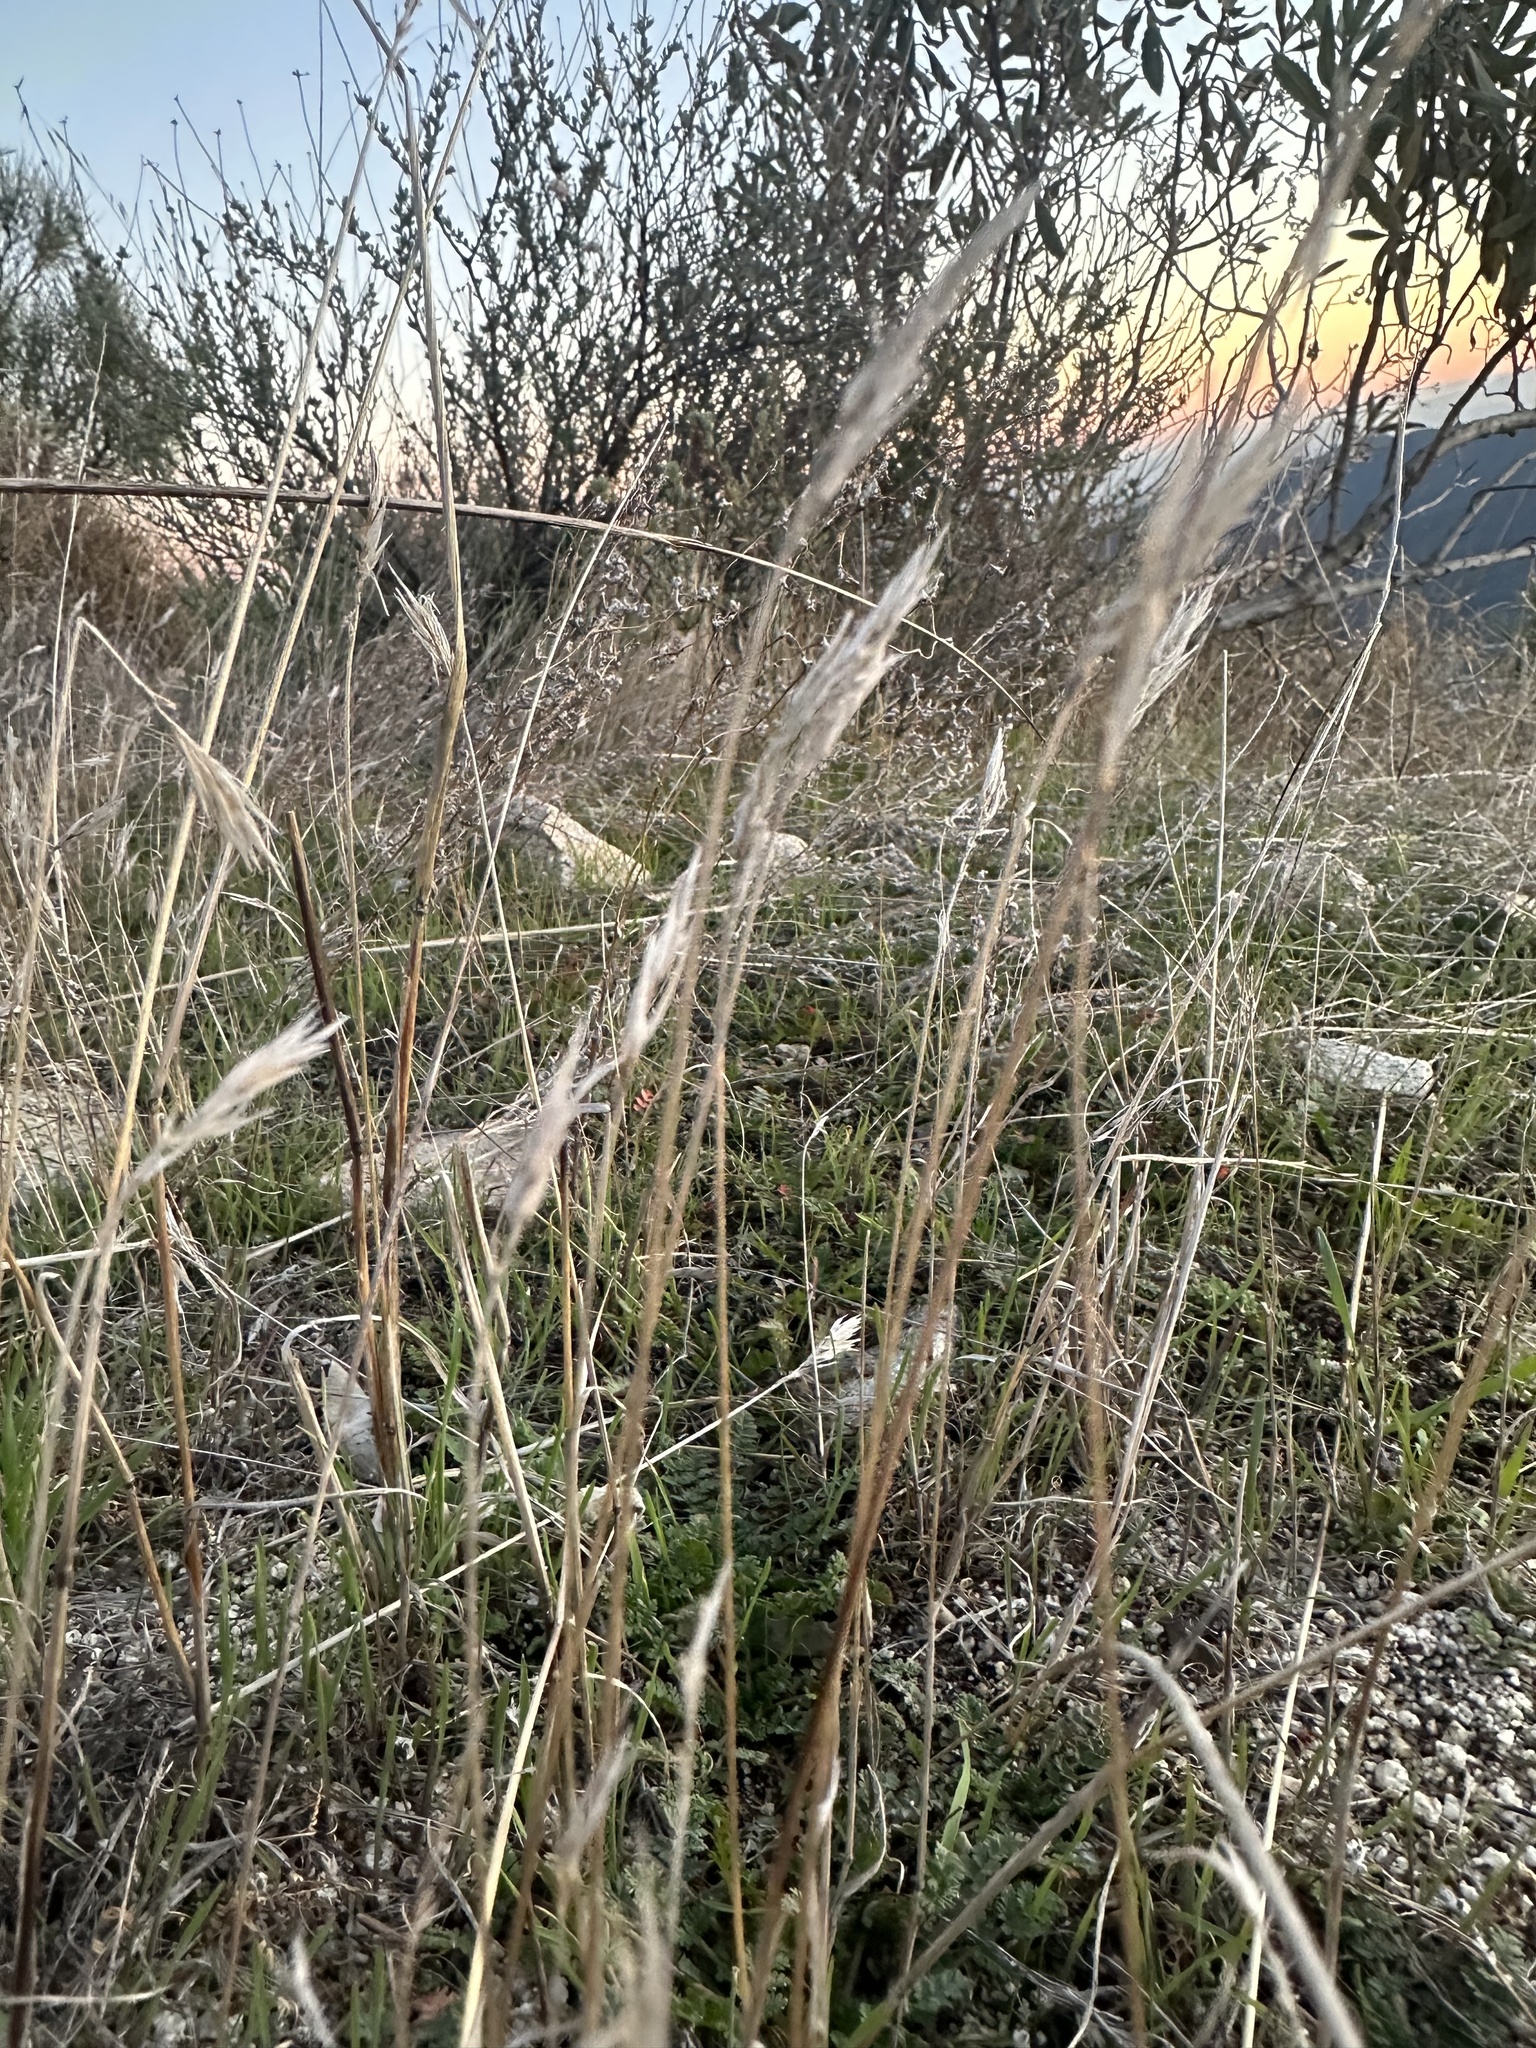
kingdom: Plantae
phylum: Tracheophyta
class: Liliopsida
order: Poales
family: Poaceae
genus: Bothriochloa
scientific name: Bothriochloa barbinodis
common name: Cane bluestem
